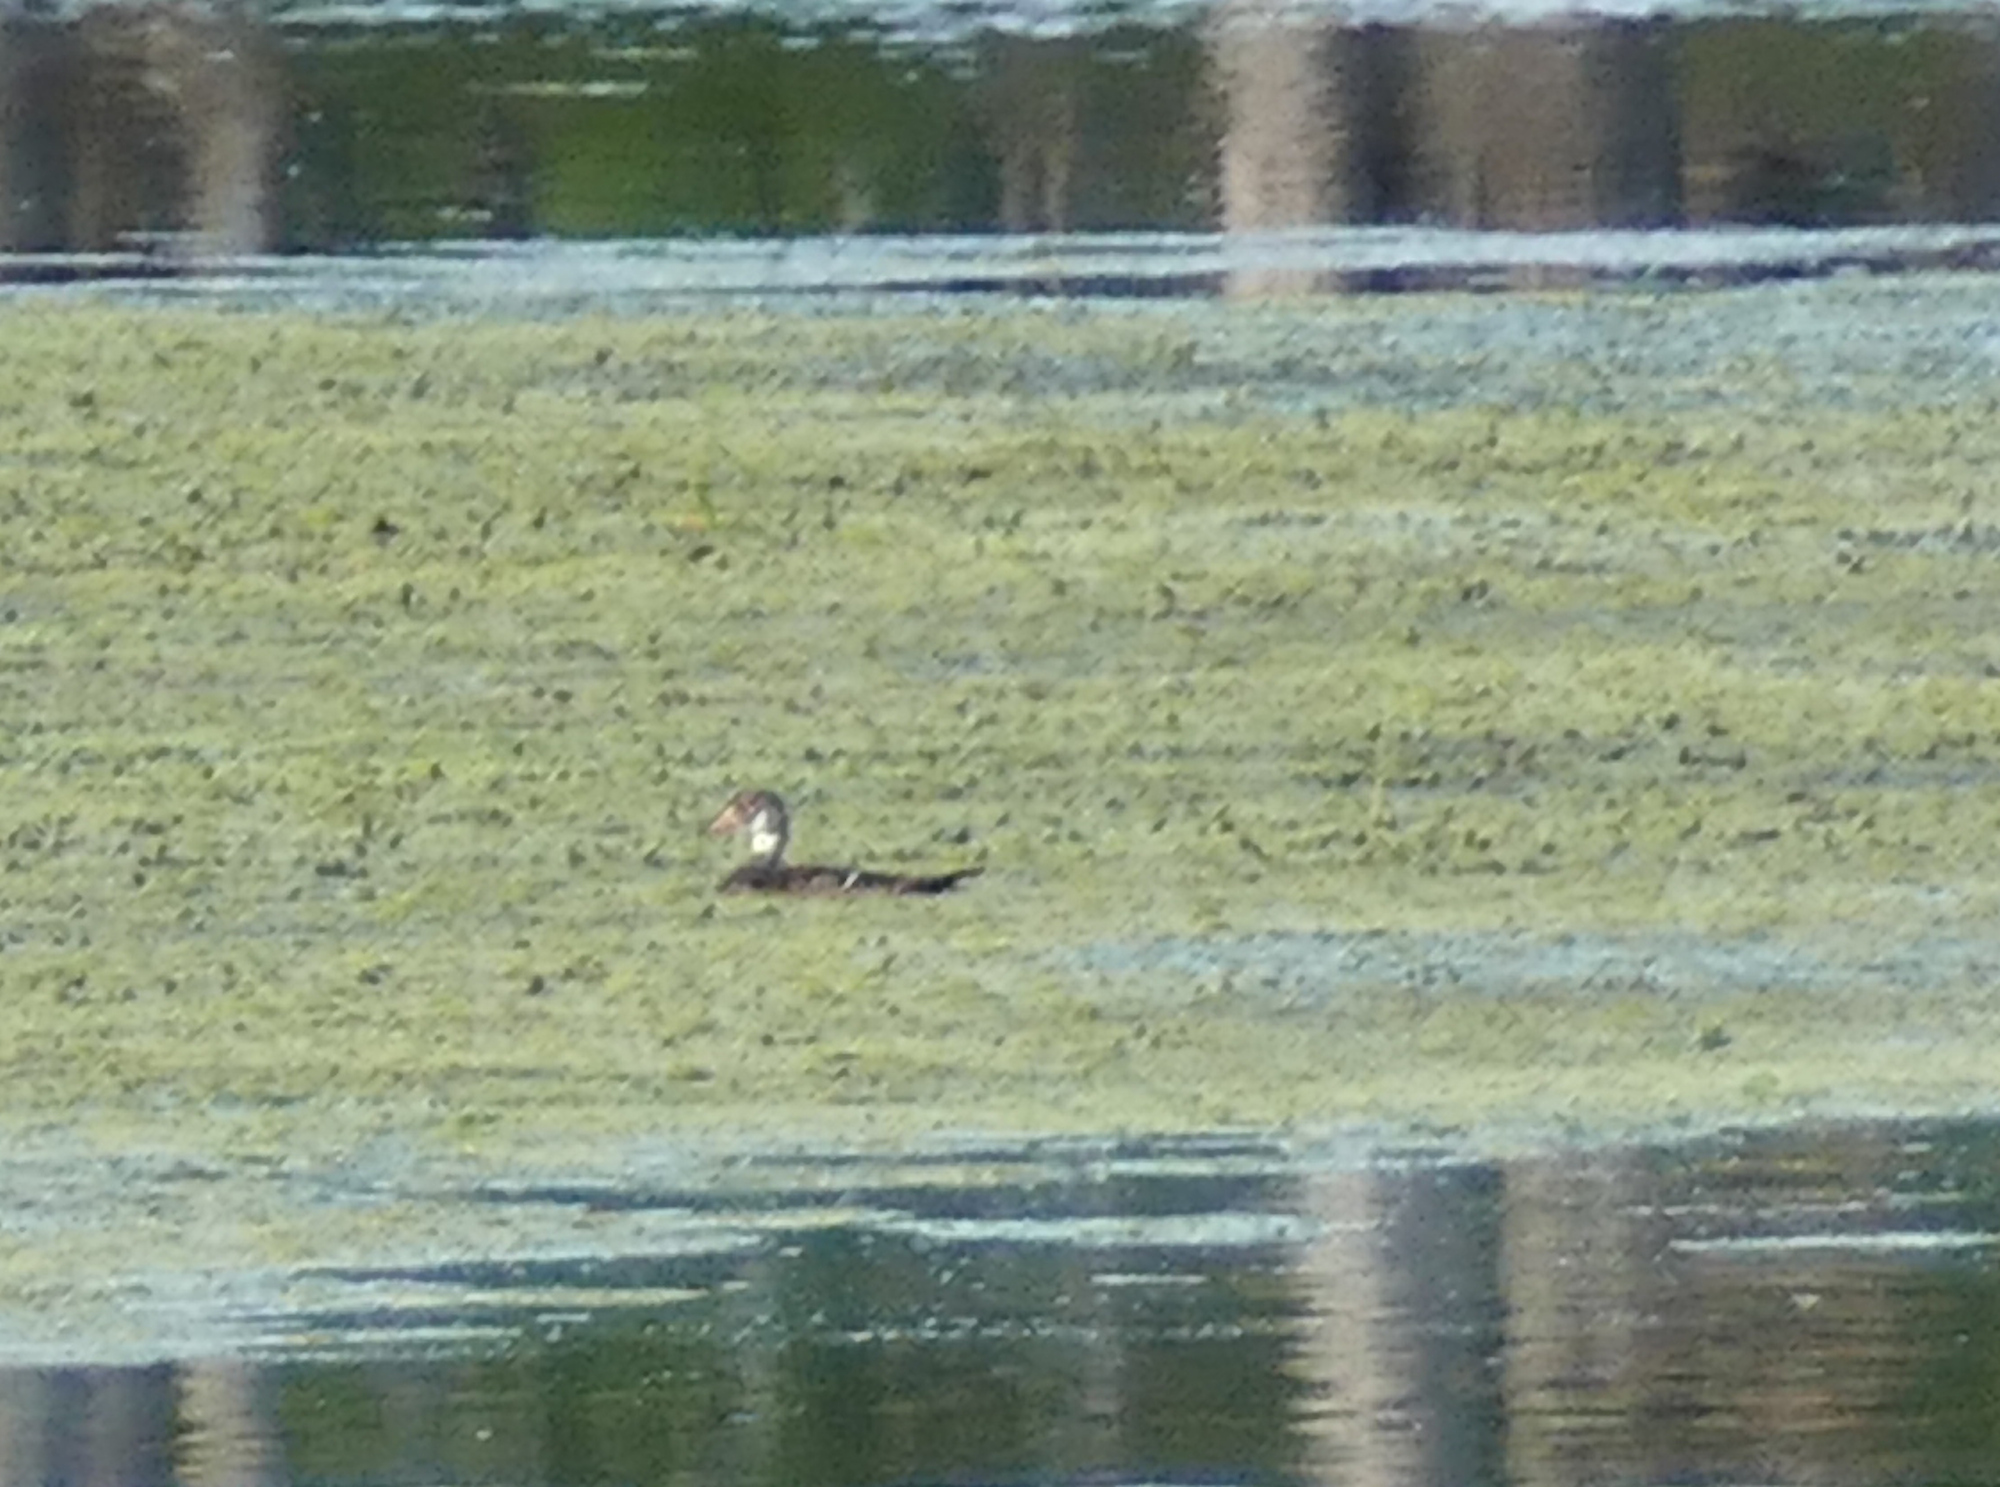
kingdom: Animalia
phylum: Chordata
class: Aves
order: Anseriformes
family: Anatidae
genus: Aix
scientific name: Aix sponsa
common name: Wood duck
